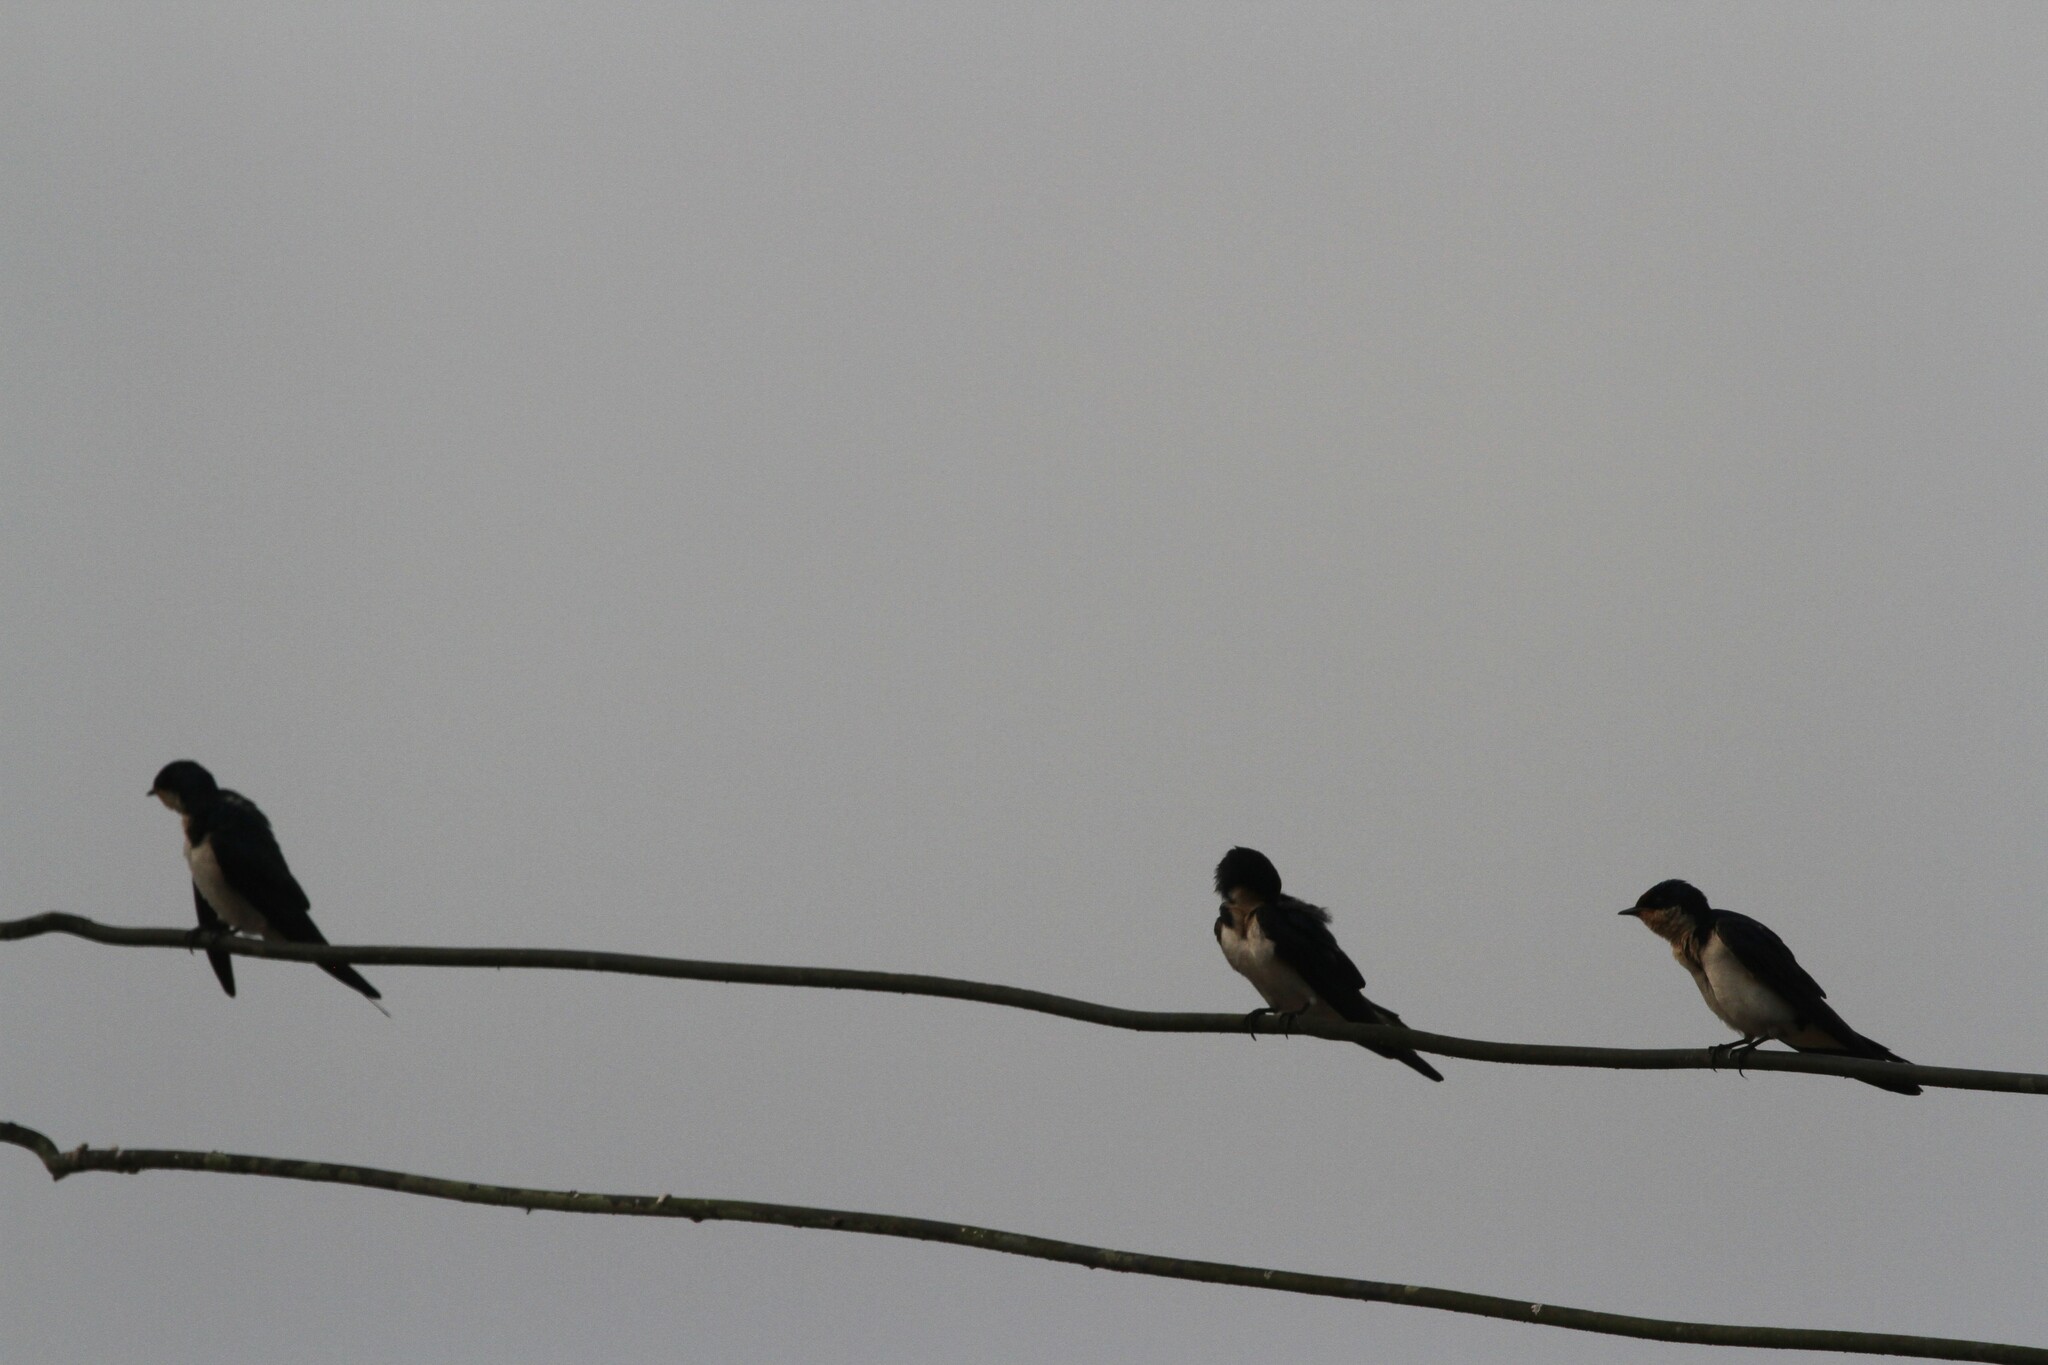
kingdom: Animalia
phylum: Chordata
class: Aves
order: Passeriformes
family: Hirundinidae
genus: Hirundo
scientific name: Hirundo rustica
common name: Barn swallow
